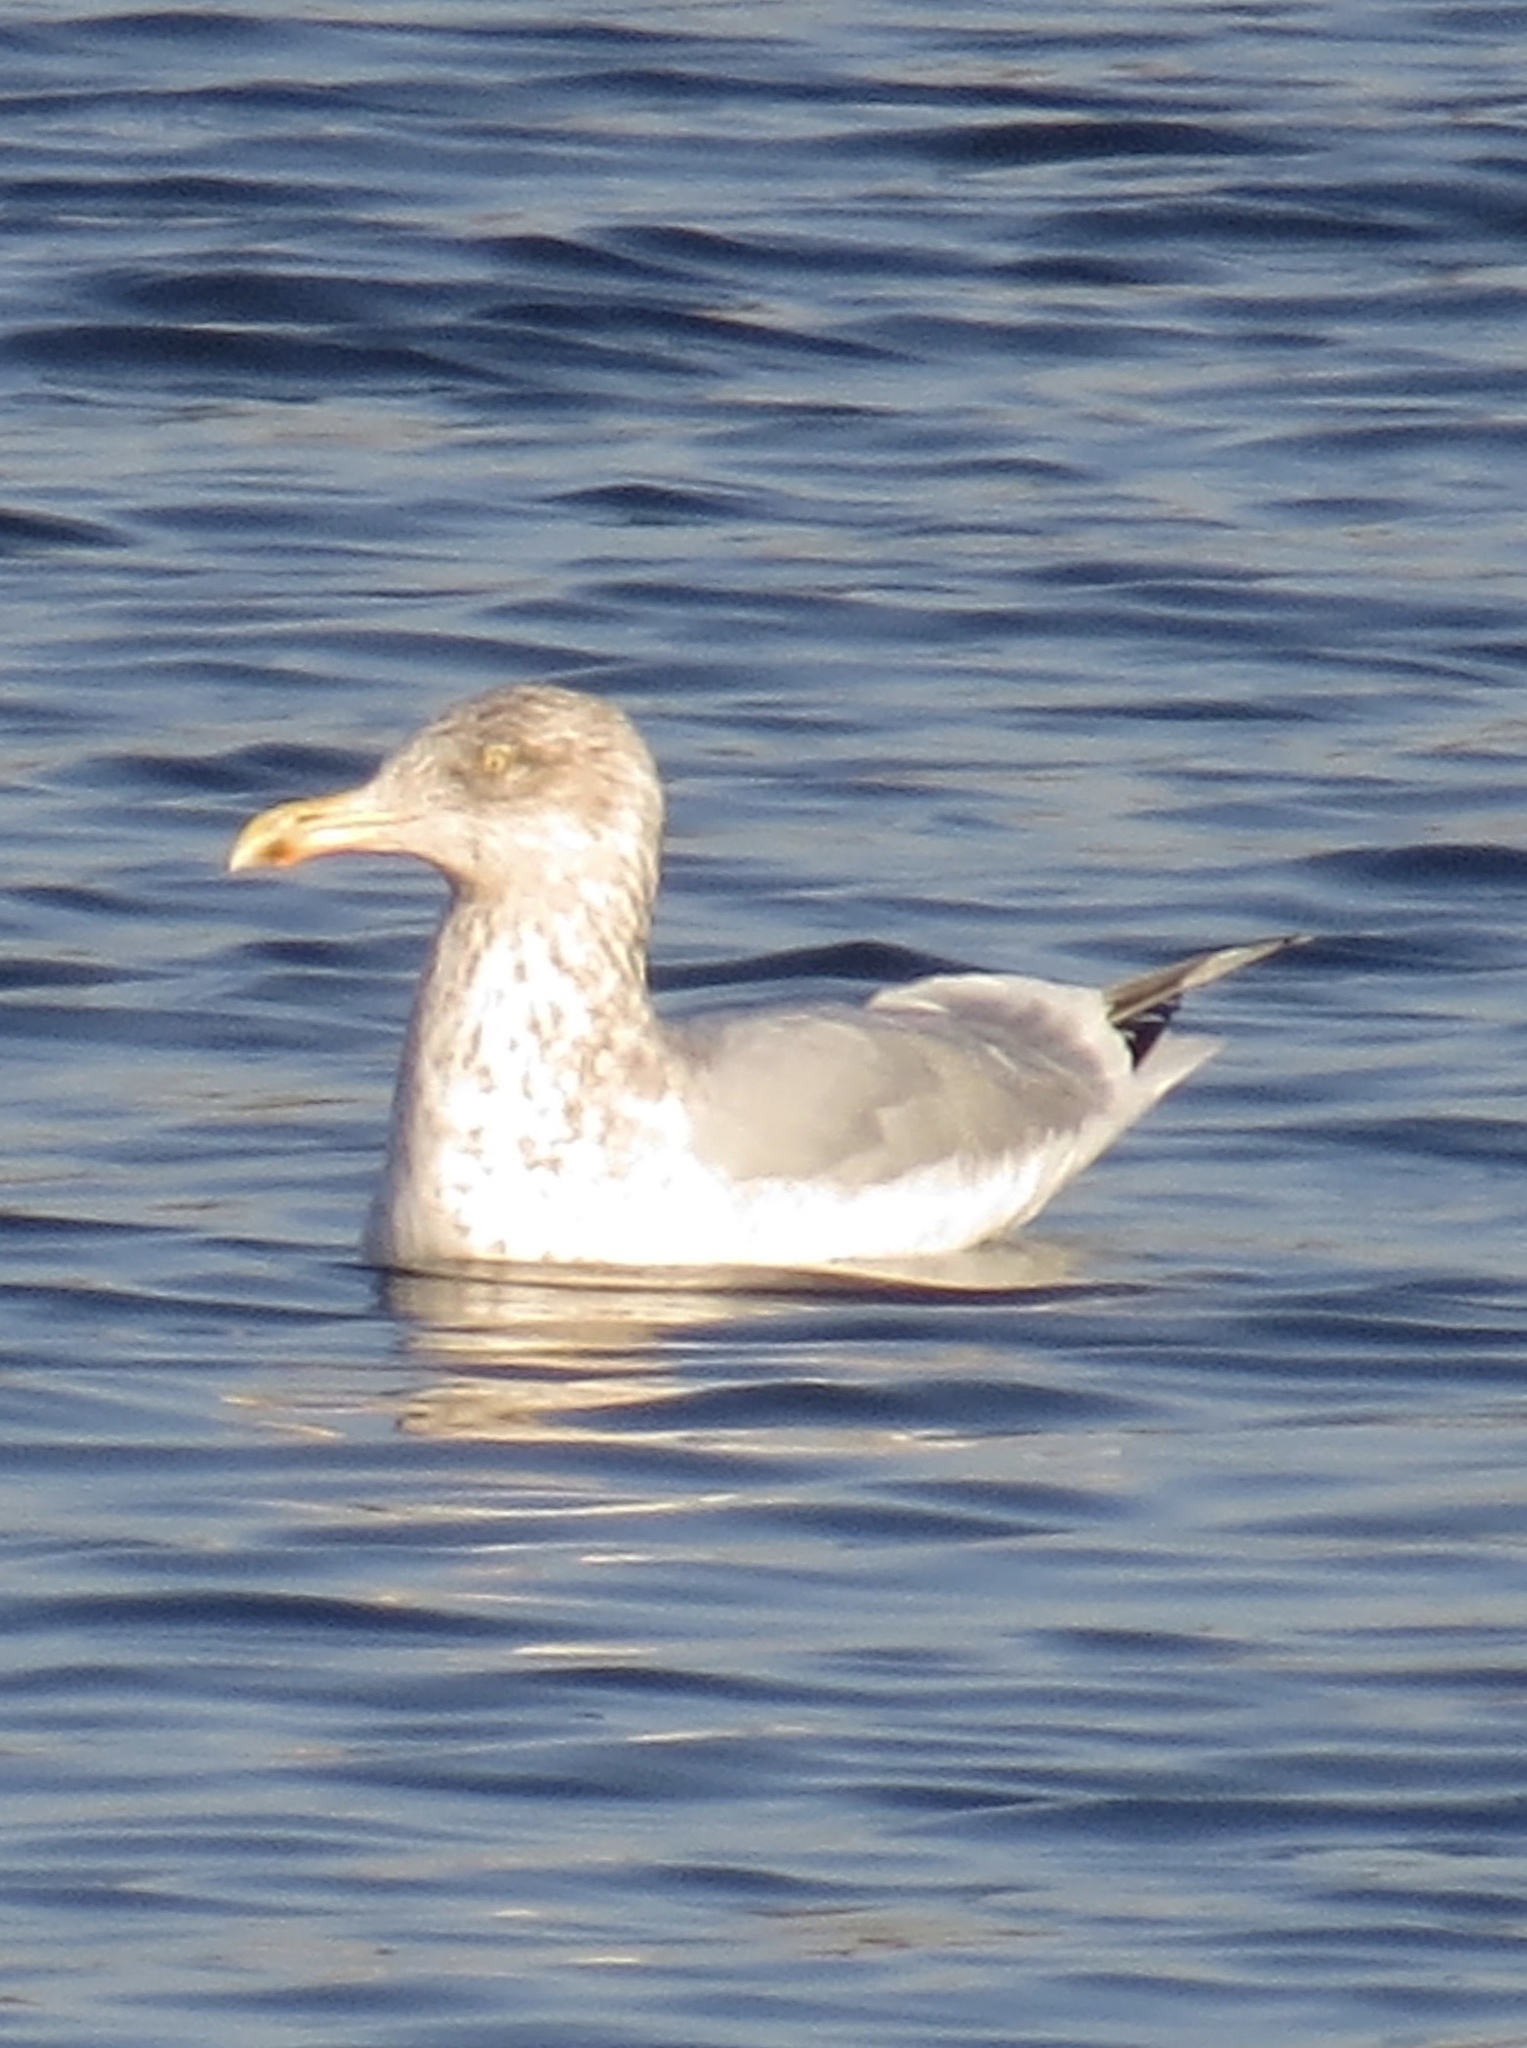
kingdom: Animalia
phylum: Chordata
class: Aves
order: Charadriiformes
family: Laridae
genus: Larus
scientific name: Larus argentatus
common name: Herring gull
